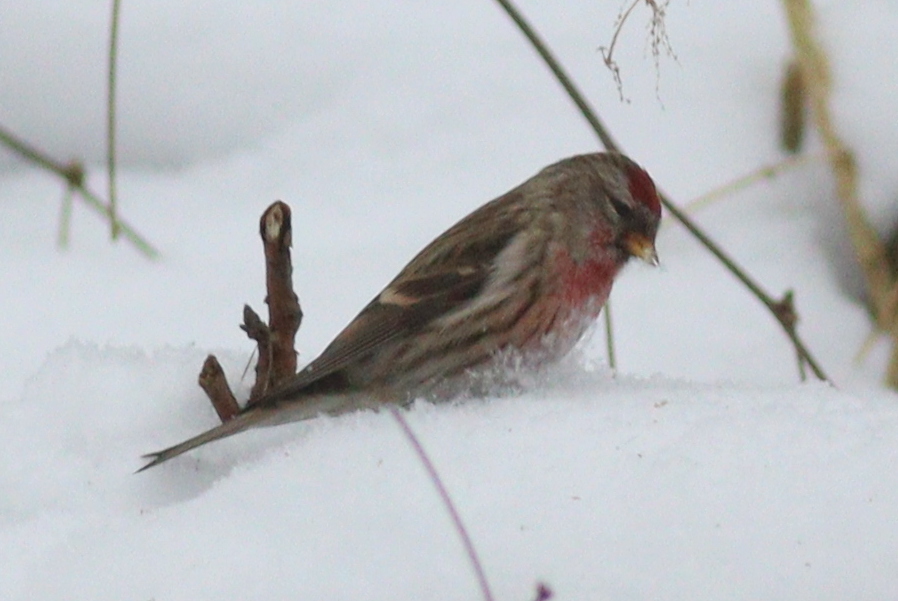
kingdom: Animalia
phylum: Chordata
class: Aves
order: Passeriformes
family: Fringillidae
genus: Acanthis
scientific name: Acanthis flammea
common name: Common redpoll
